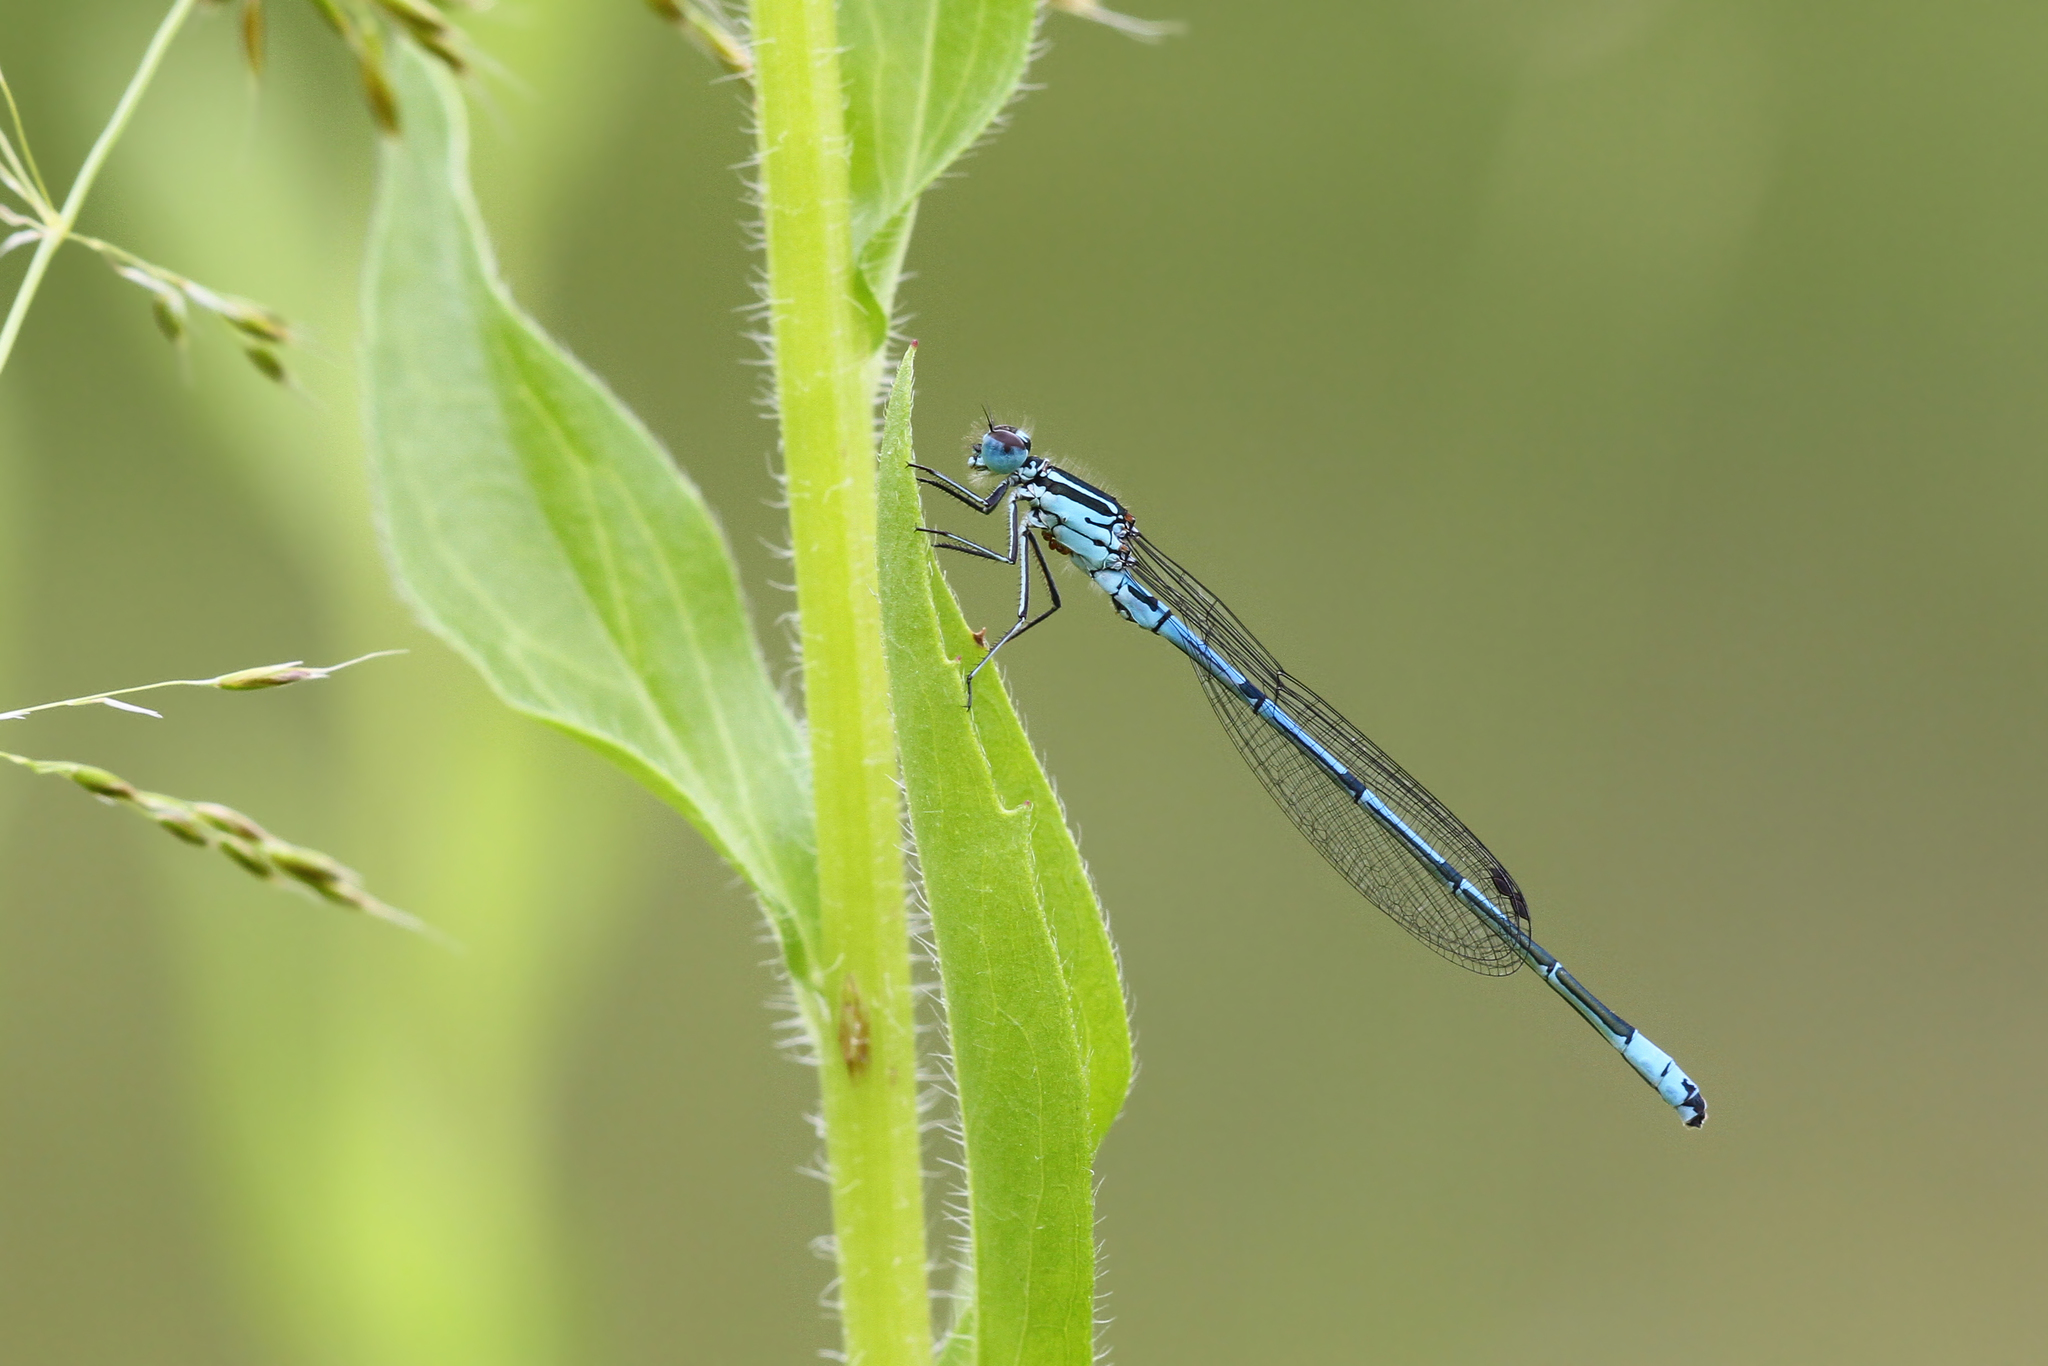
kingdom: Animalia
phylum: Arthropoda
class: Insecta
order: Odonata
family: Coenagrionidae
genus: Coenagrion
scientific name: Coenagrion puella
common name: Azure damselfly
